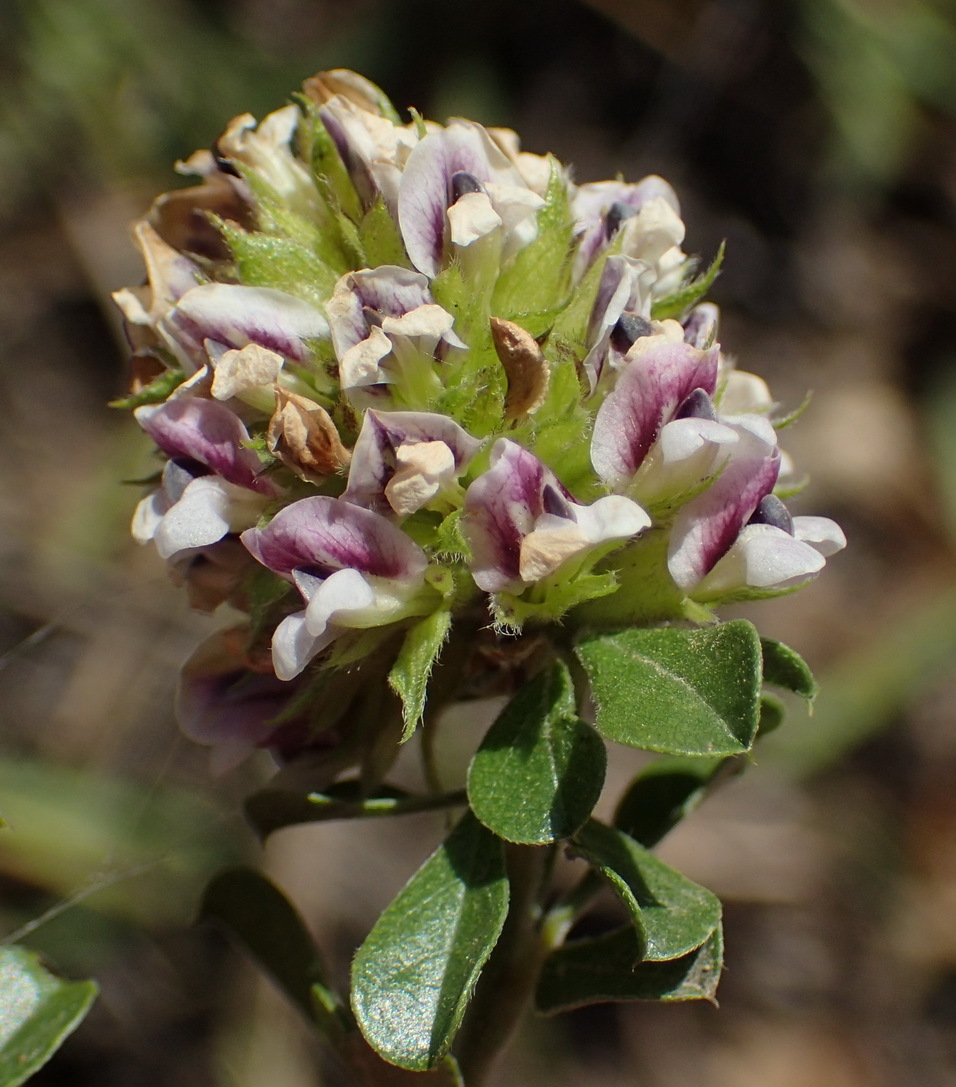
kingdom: Plantae
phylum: Tracheophyta
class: Magnoliopsida
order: Fabales
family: Fabaceae
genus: Psoralea
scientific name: Psoralea stachyera
